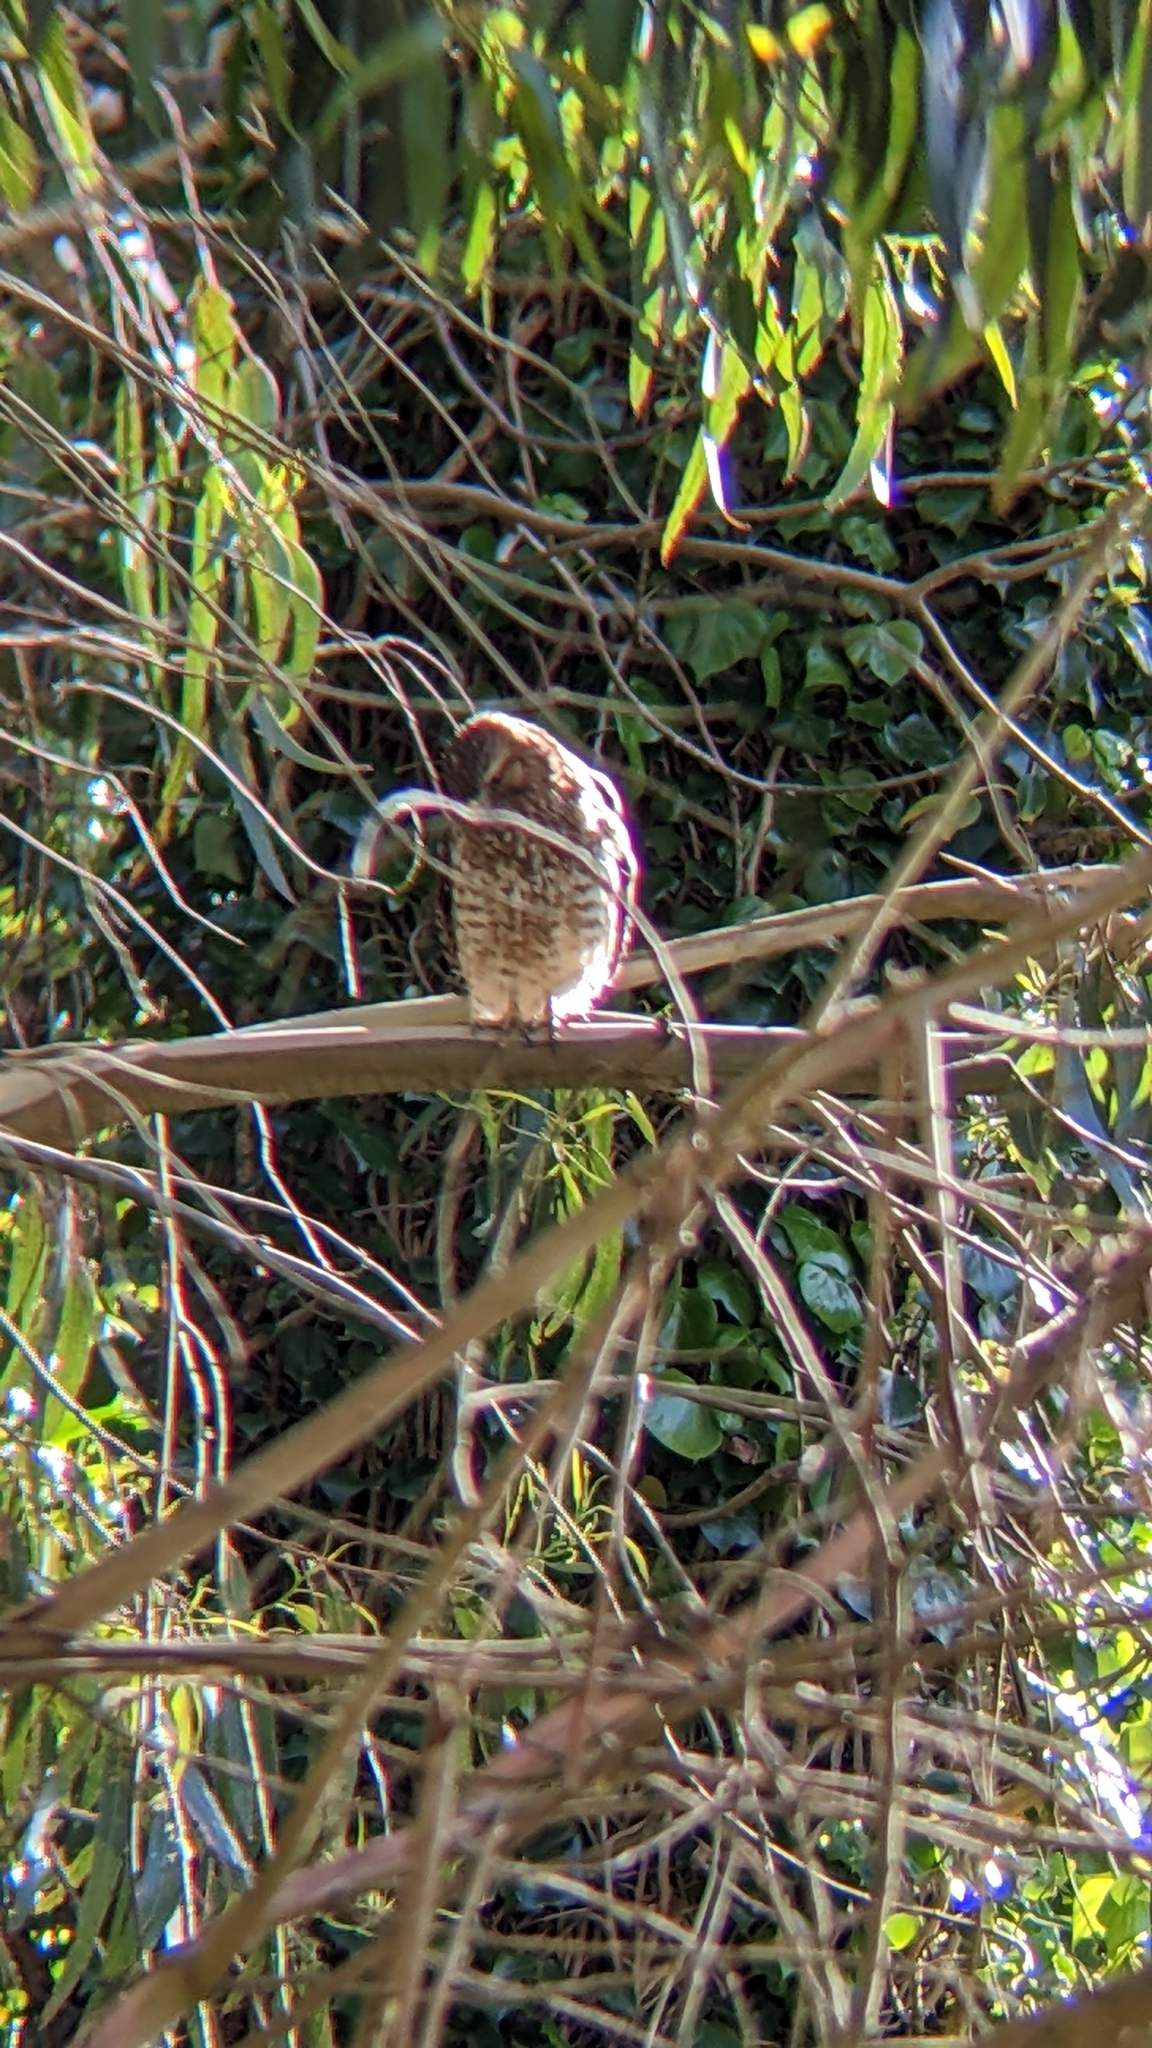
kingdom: Animalia
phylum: Chordata
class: Aves
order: Accipitriformes
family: Accipitridae
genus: Buteo
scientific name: Buteo lineatus
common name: Red-shouldered hawk
